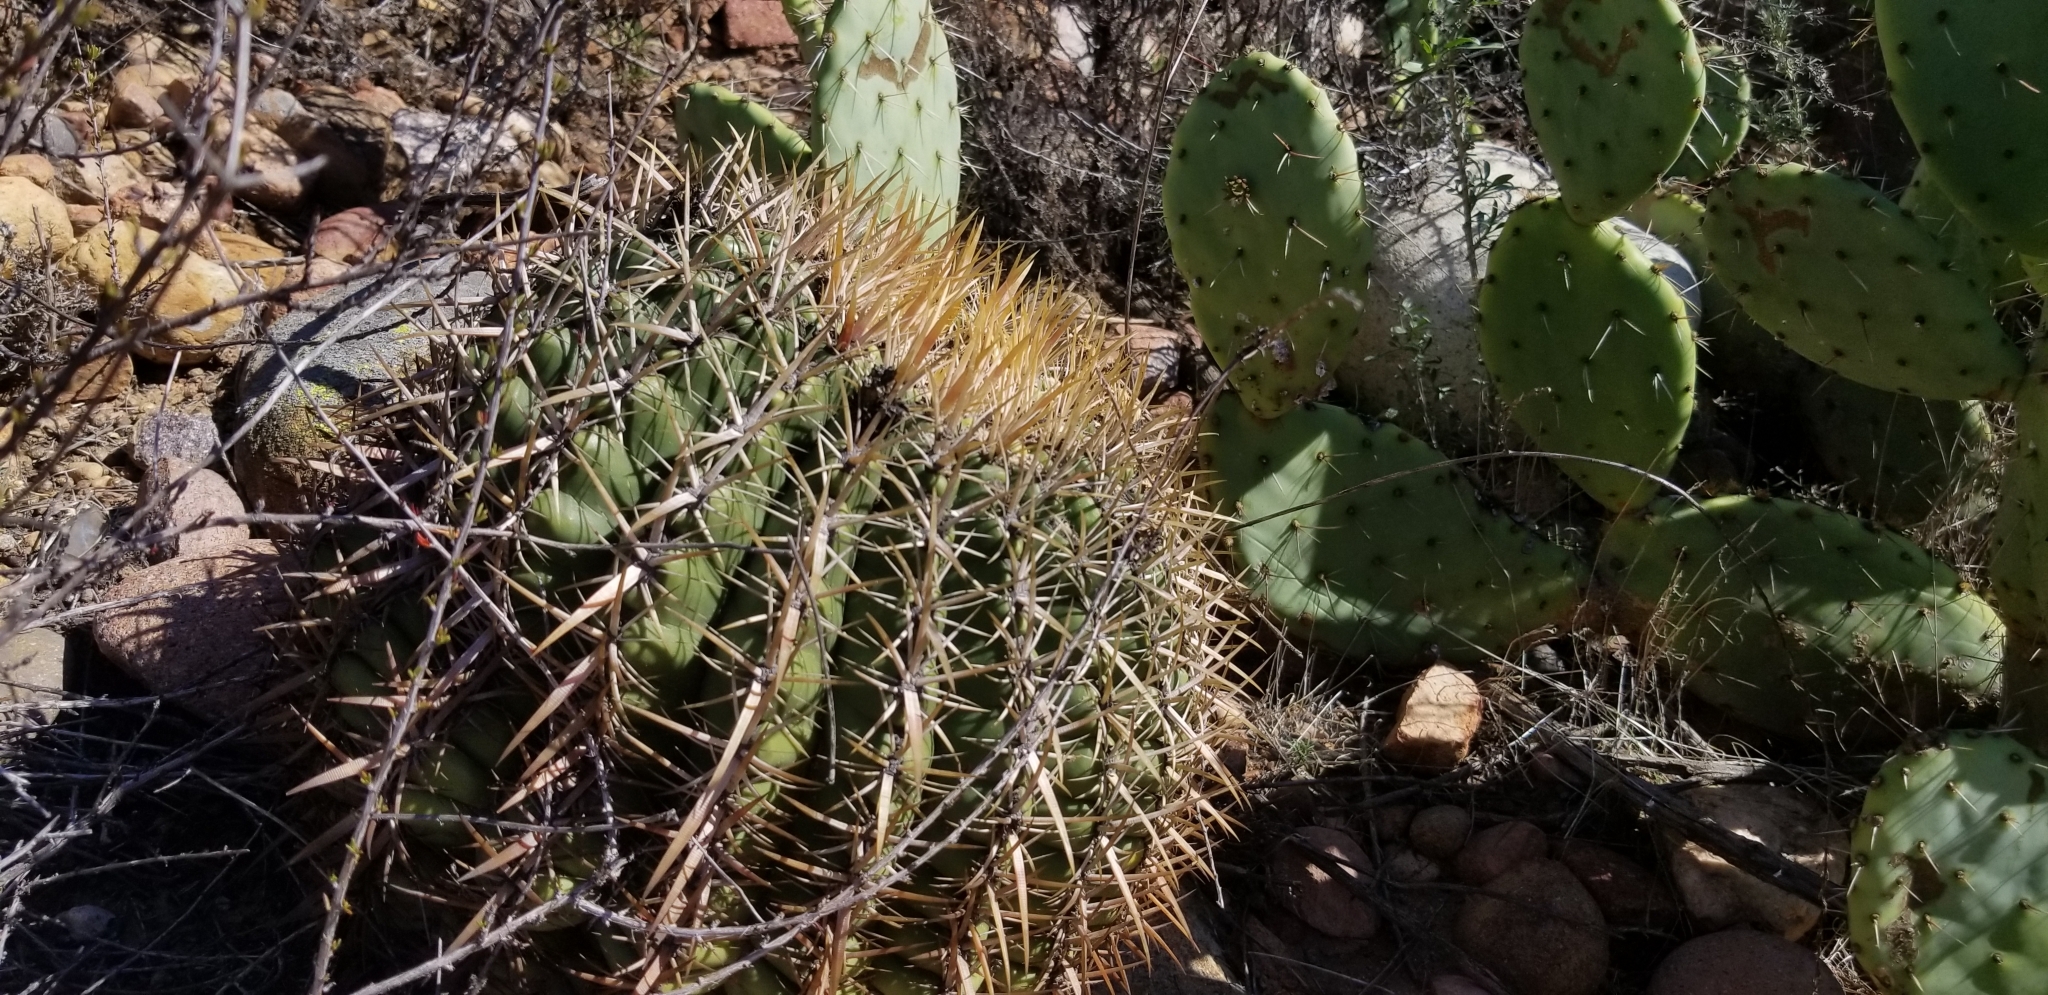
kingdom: Plantae
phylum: Tracheophyta
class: Magnoliopsida
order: Caryophyllales
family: Cactaceae
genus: Ferocactus
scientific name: Ferocactus viridescens
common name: San diego barrel cactus
